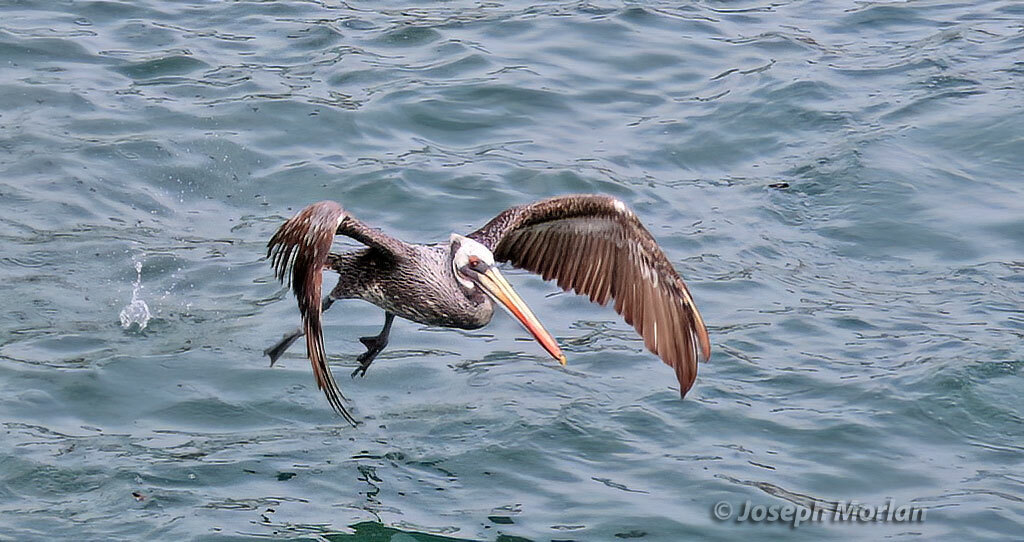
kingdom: Animalia
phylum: Chordata
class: Aves
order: Pelecaniformes
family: Pelecanidae
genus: Pelecanus
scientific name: Pelecanus thagus
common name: Peruvian pelican
